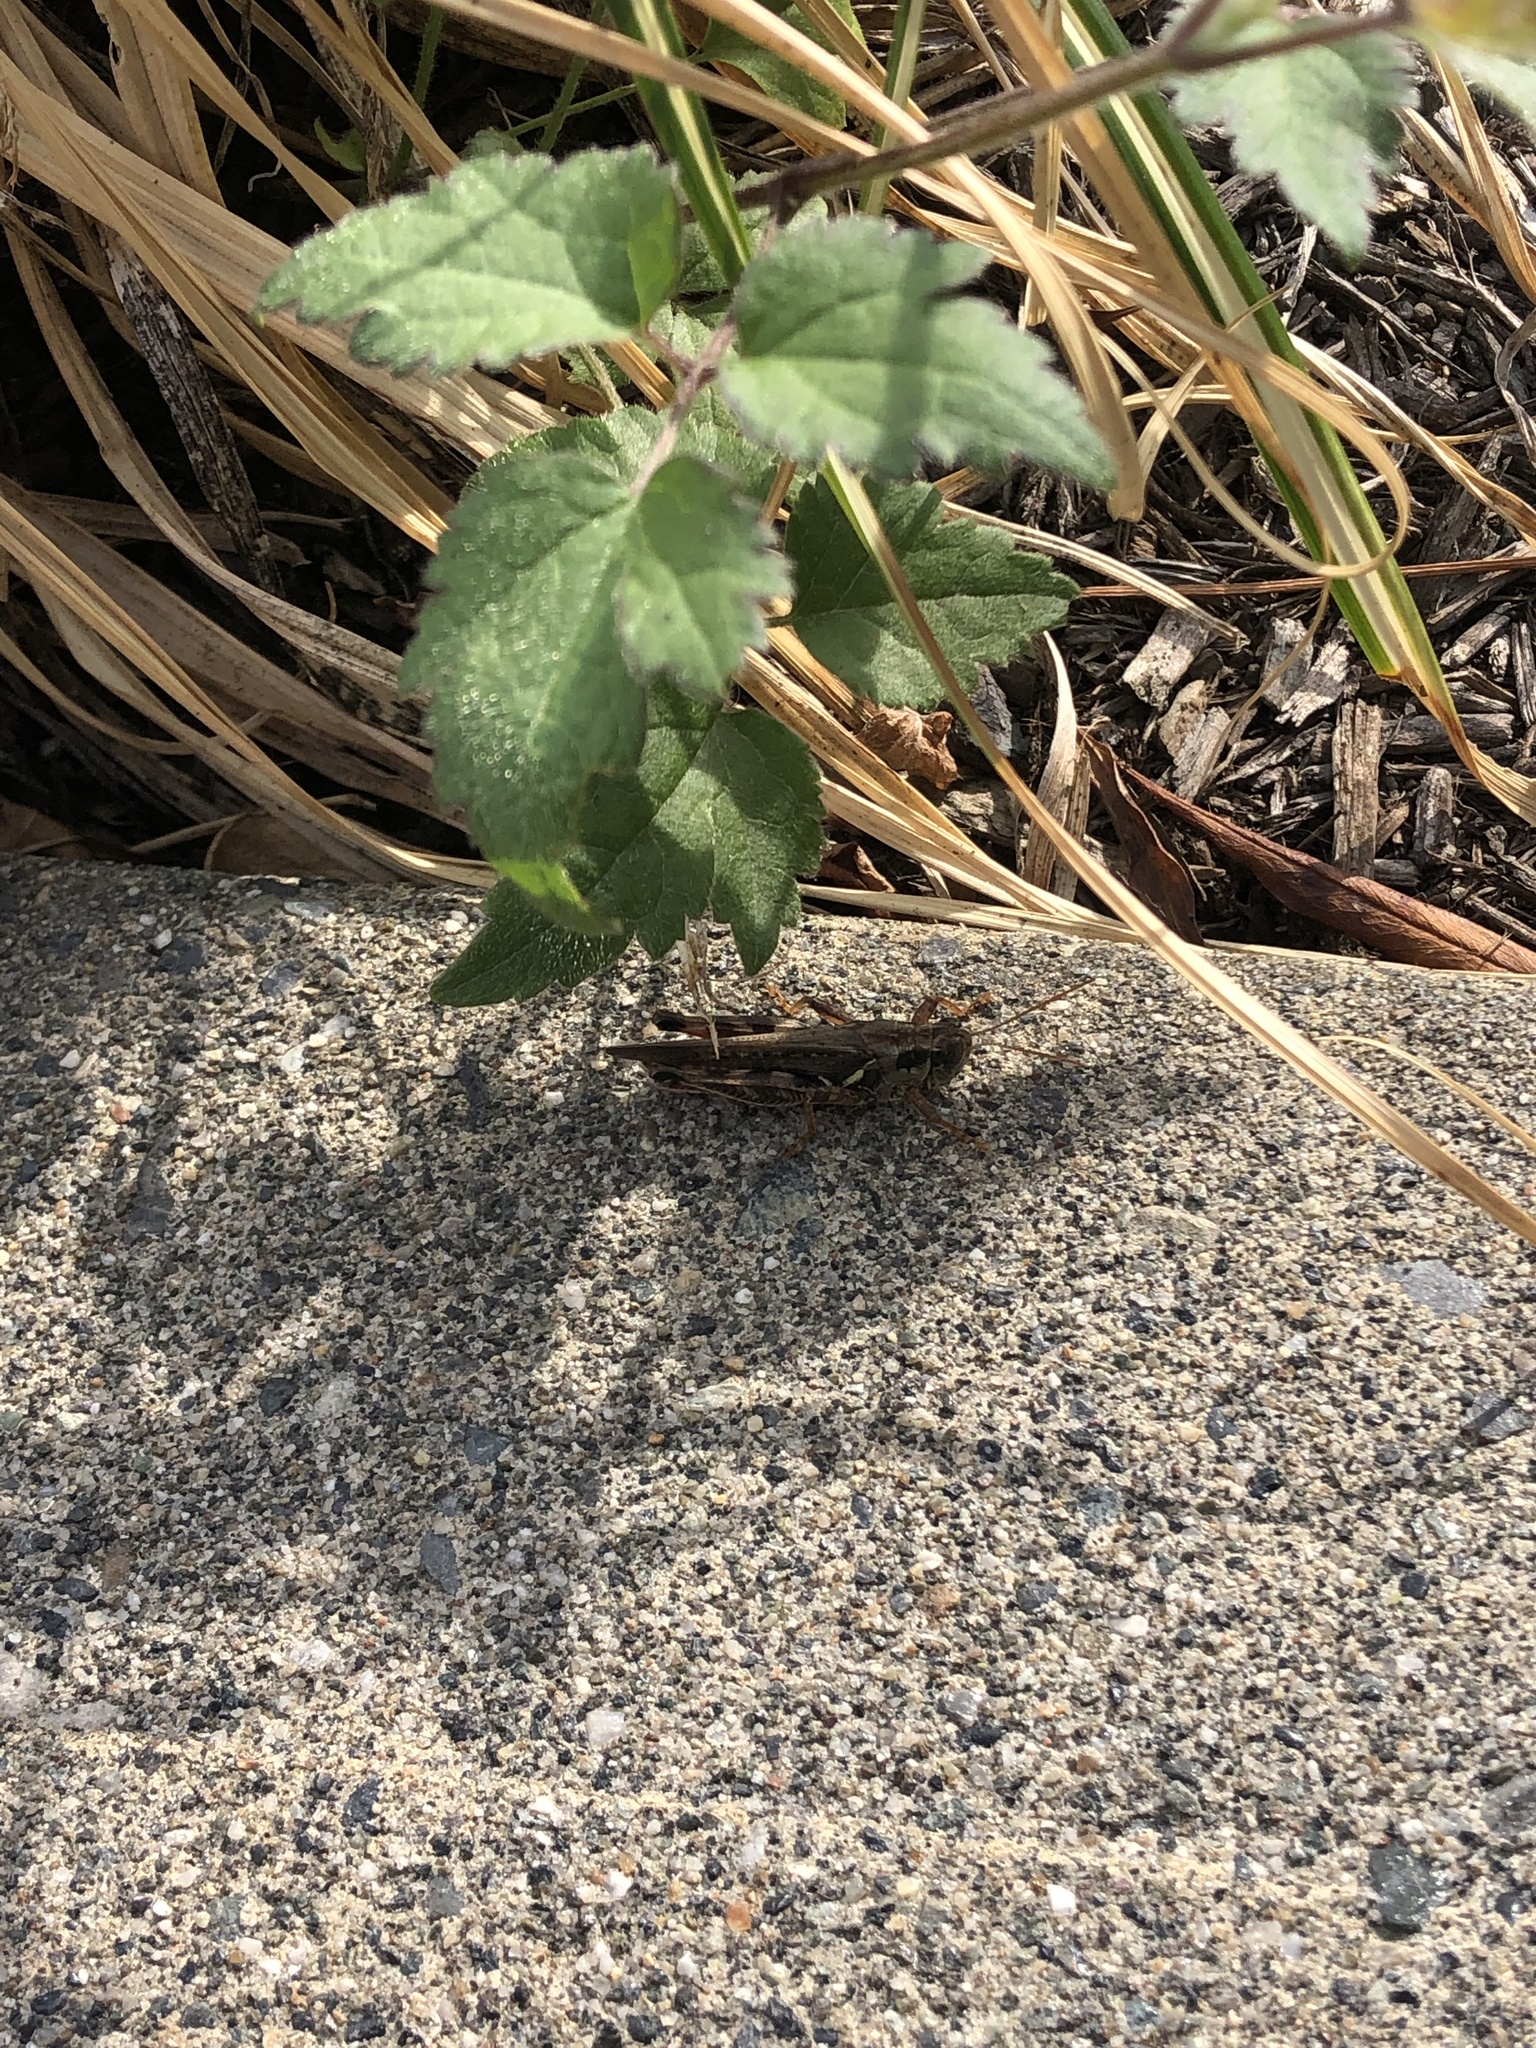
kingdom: Animalia
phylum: Arthropoda
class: Insecta
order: Orthoptera
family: Acrididae
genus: Melanoplus
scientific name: Melanoplus sanguinipes
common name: Migratory grasshopper
